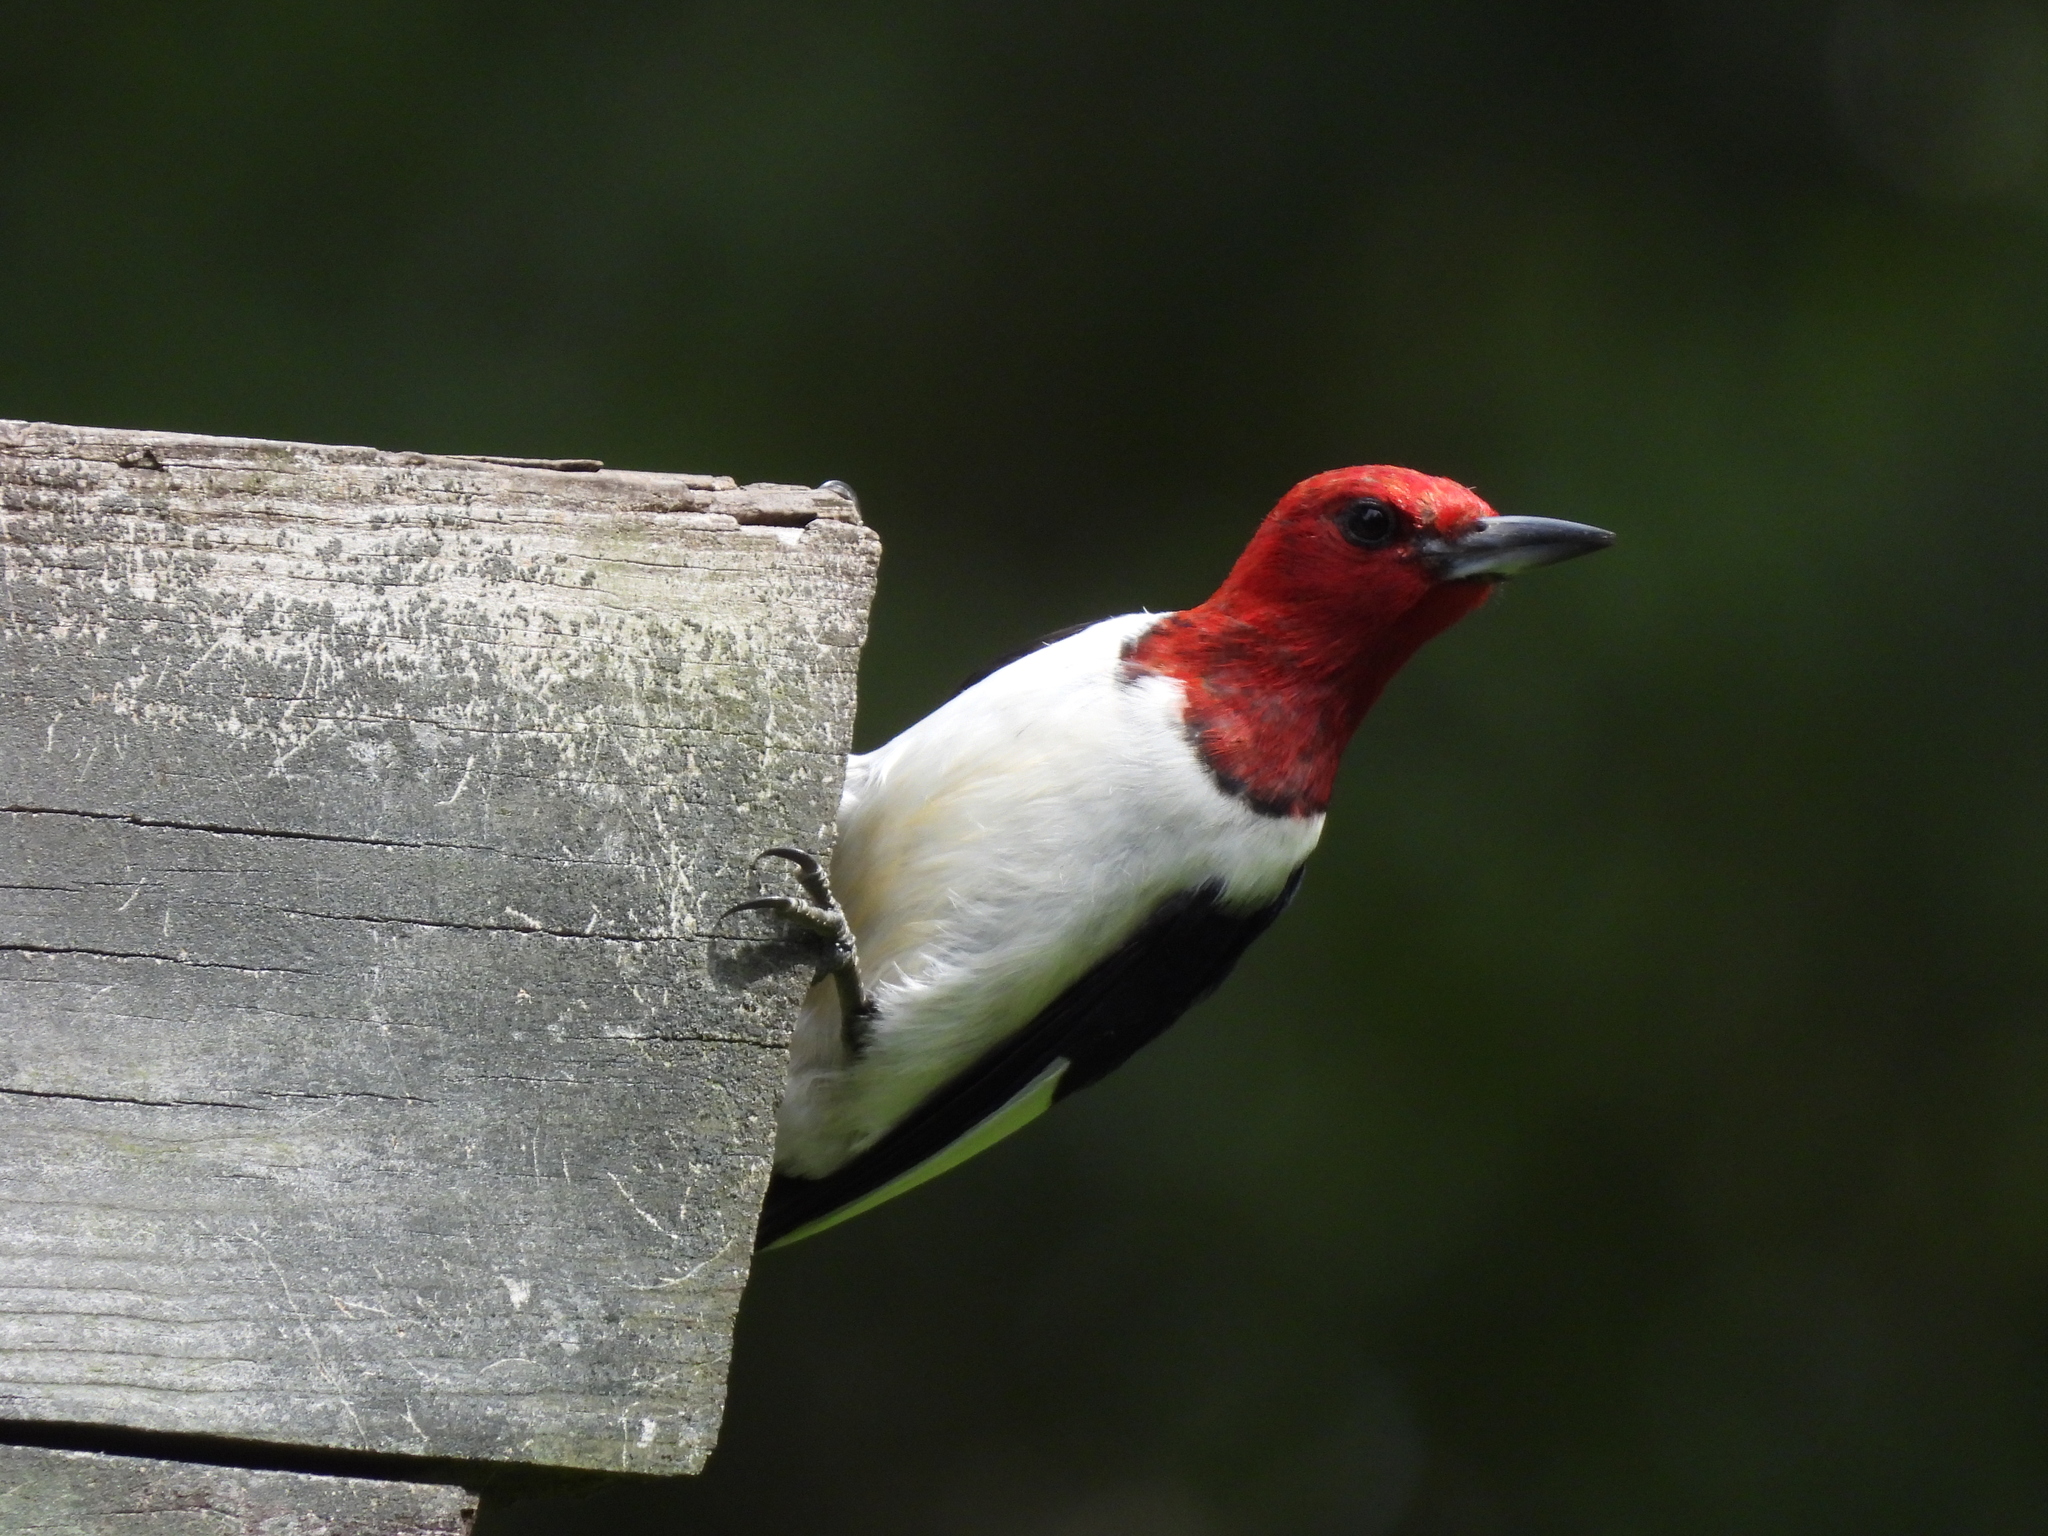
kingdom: Animalia
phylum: Chordata
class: Aves
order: Piciformes
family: Picidae
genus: Melanerpes
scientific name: Melanerpes erythrocephalus
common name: Red-headed woodpecker
